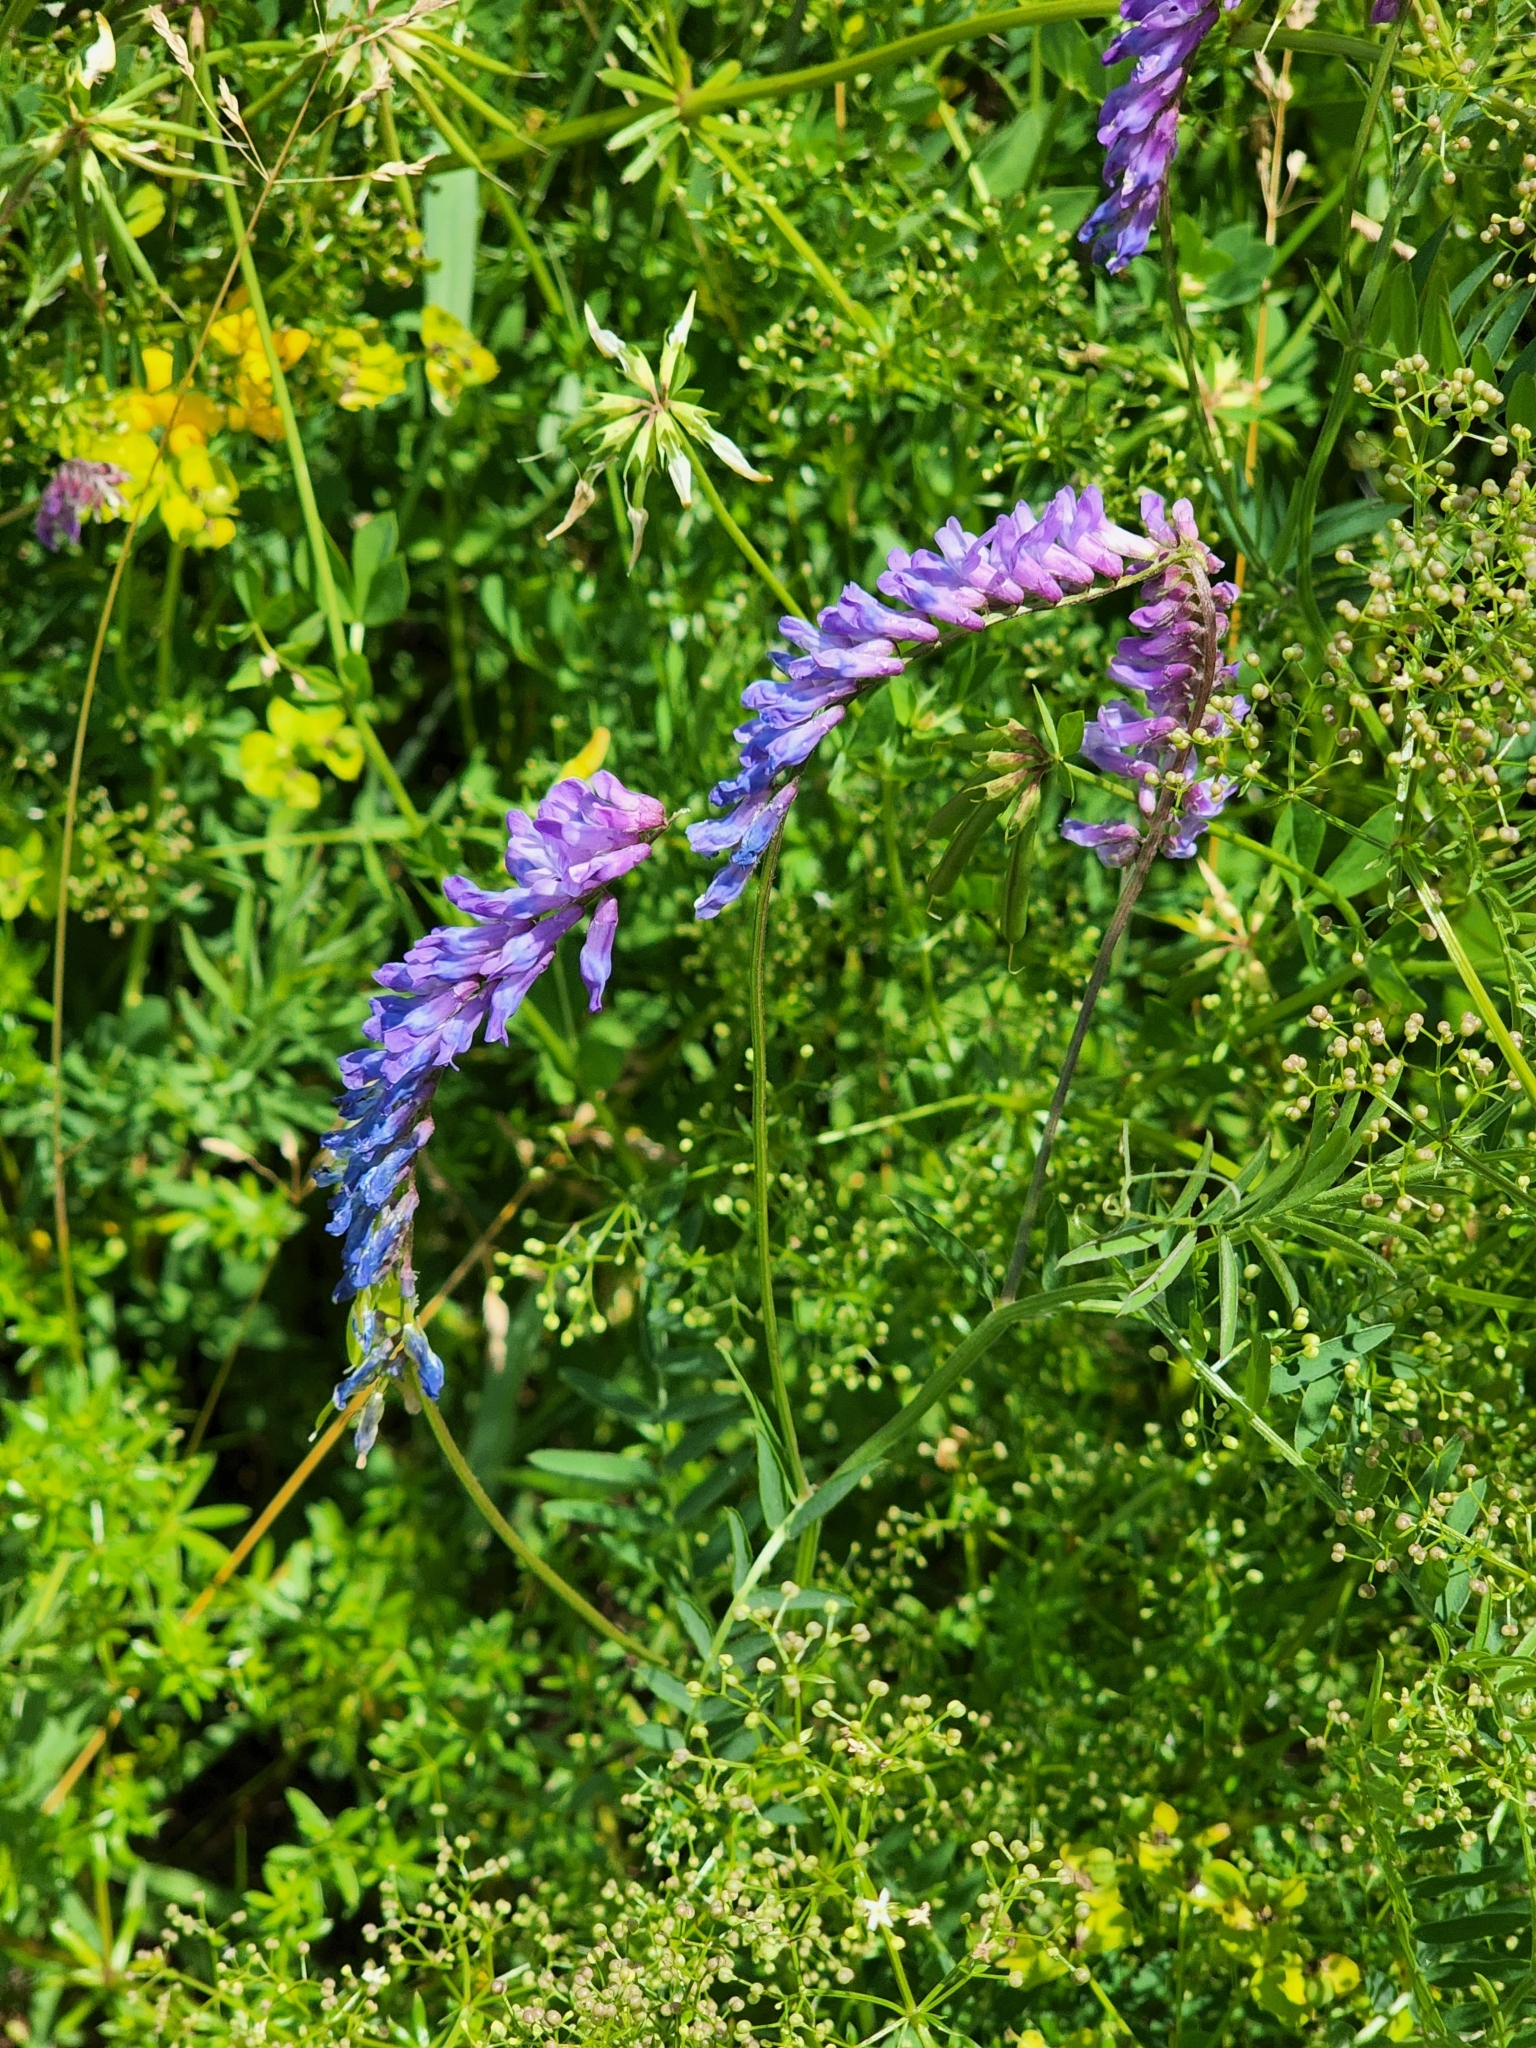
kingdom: Plantae
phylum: Tracheophyta
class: Magnoliopsida
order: Fabales
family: Fabaceae
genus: Vicia
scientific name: Vicia cracca
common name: Bird vetch
